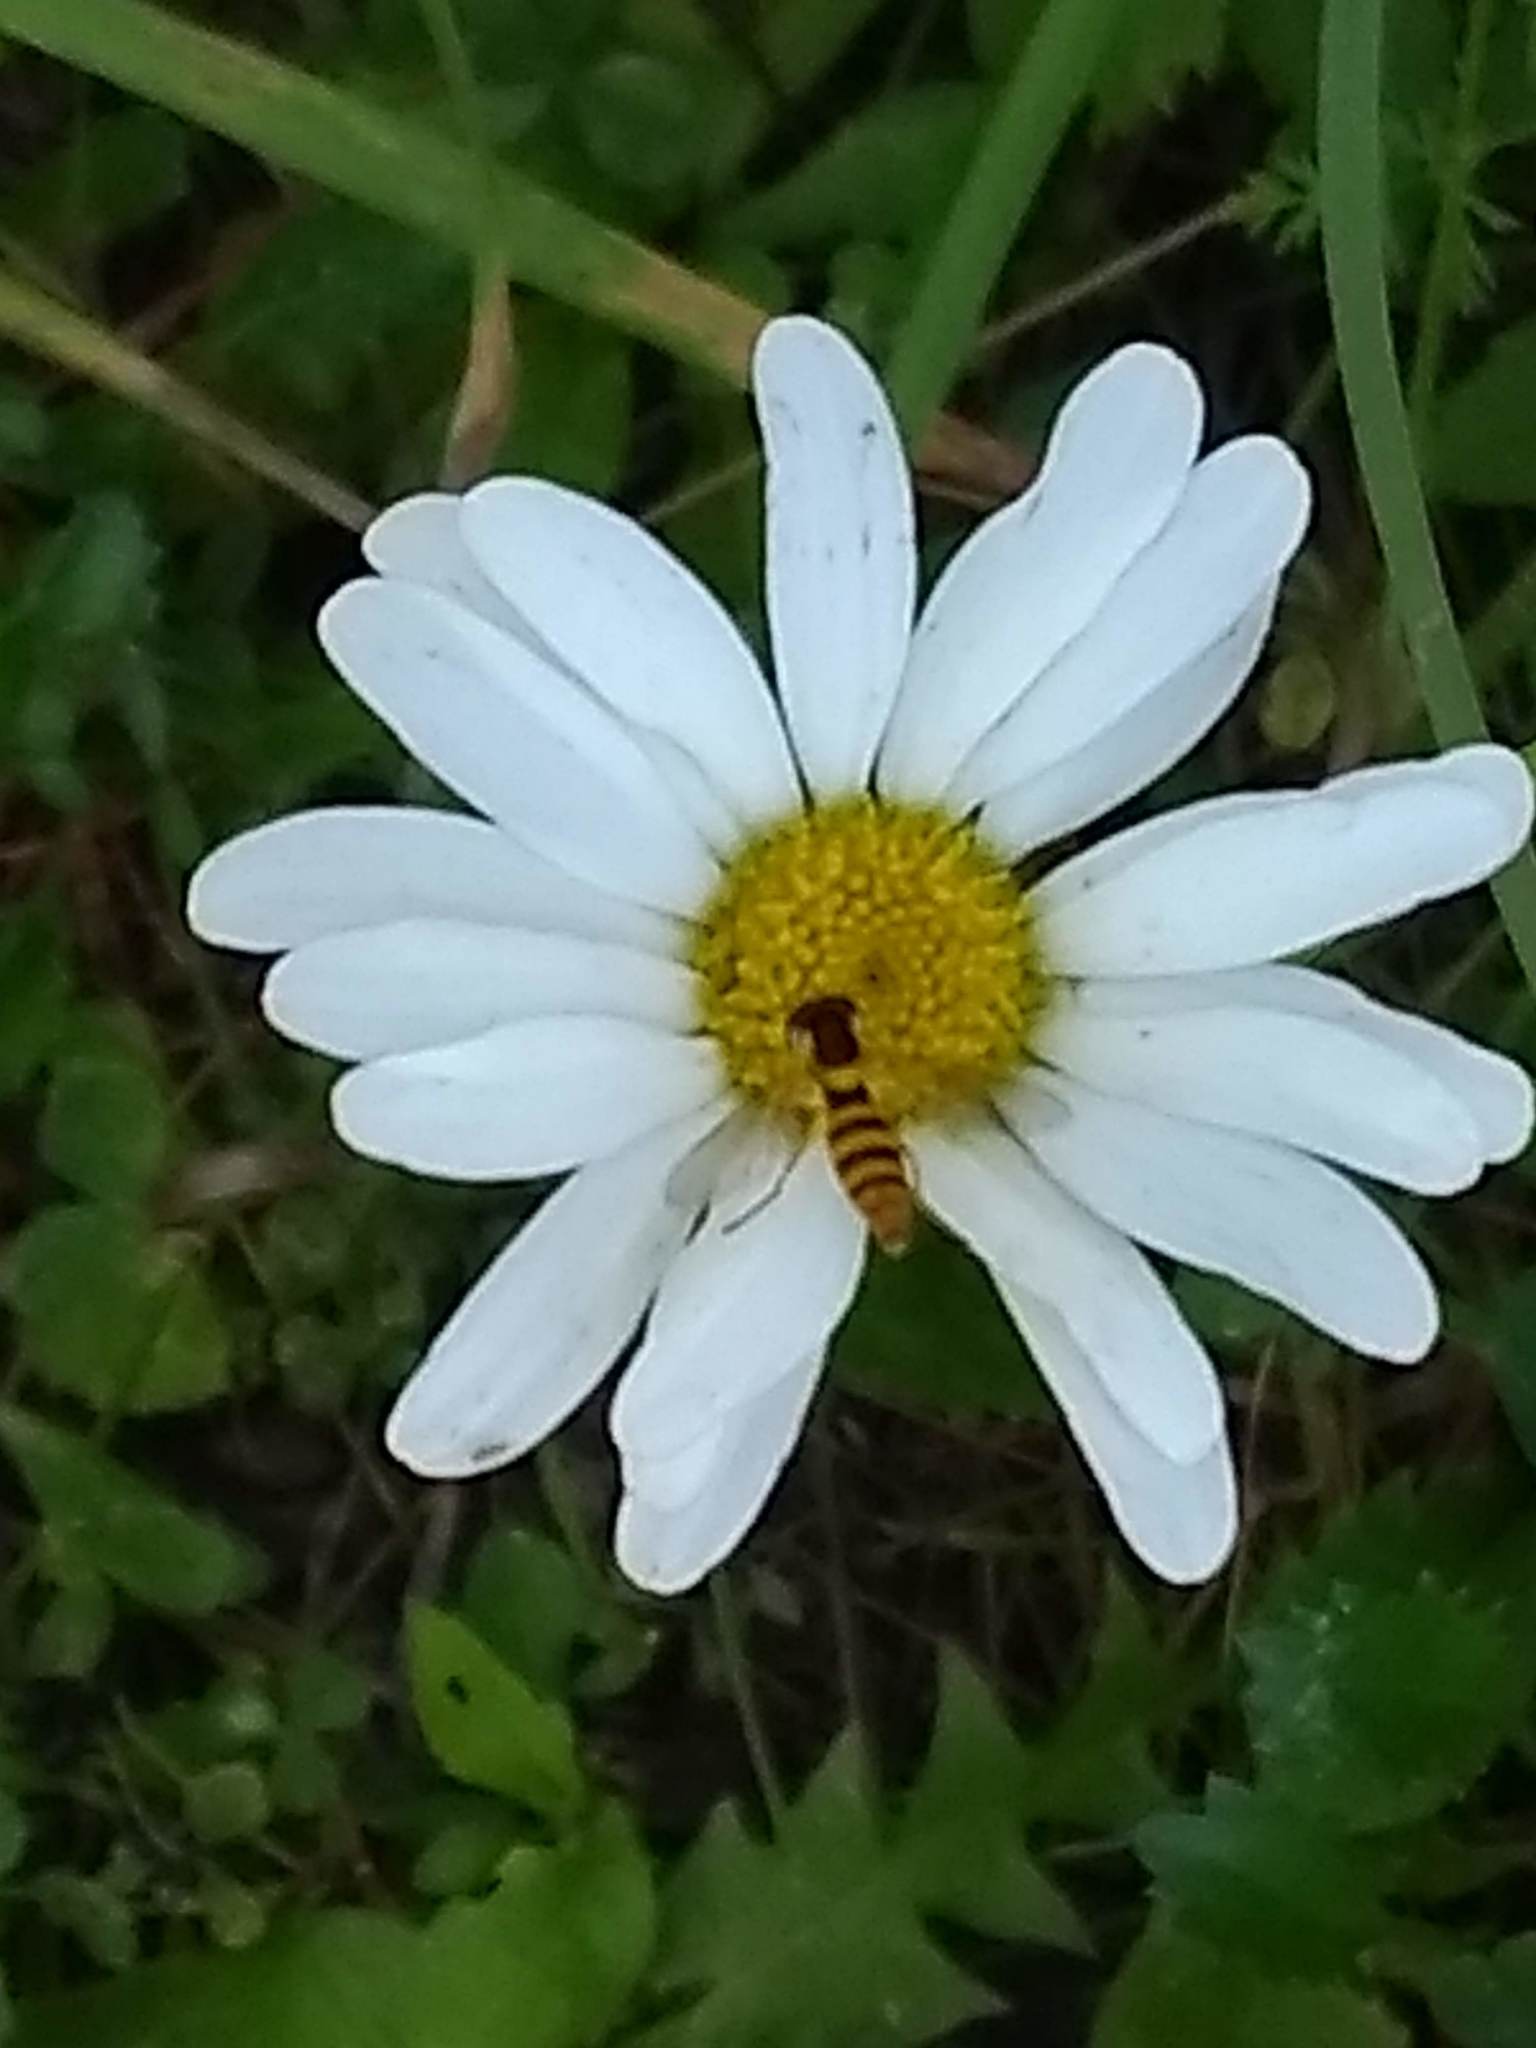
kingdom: Animalia
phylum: Arthropoda
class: Insecta
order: Diptera
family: Syrphidae
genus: Sphaerophoria
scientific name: Sphaerophoria
